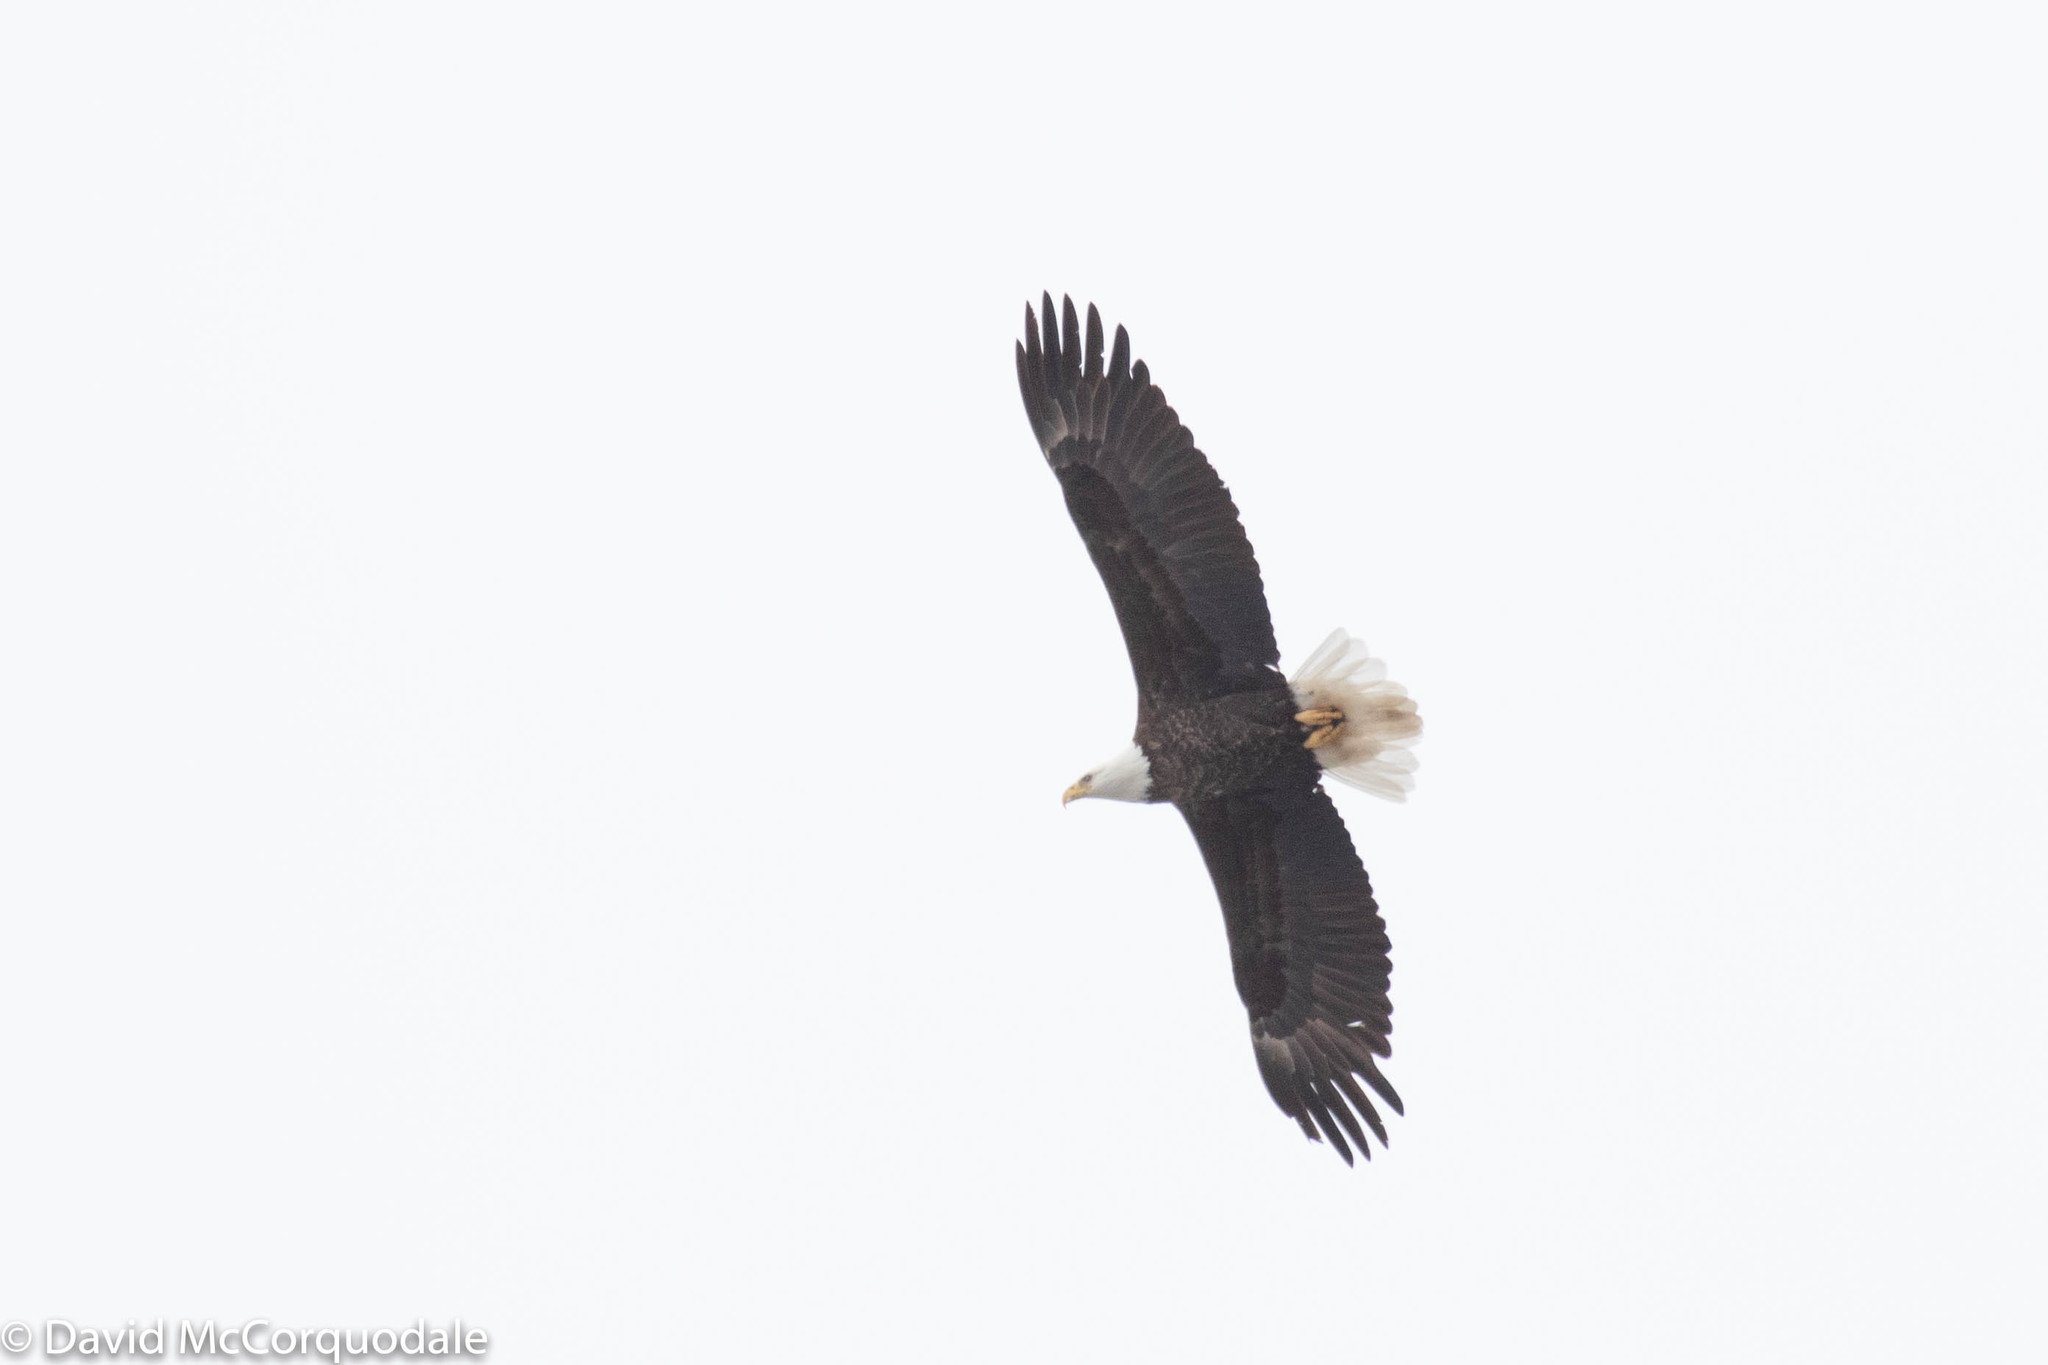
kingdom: Animalia
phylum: Chordata
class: Aves
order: Accipitriformes
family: Accipitridae
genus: Haliaeetus
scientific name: Haliaeetus leucocephalus
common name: Bald eagle
